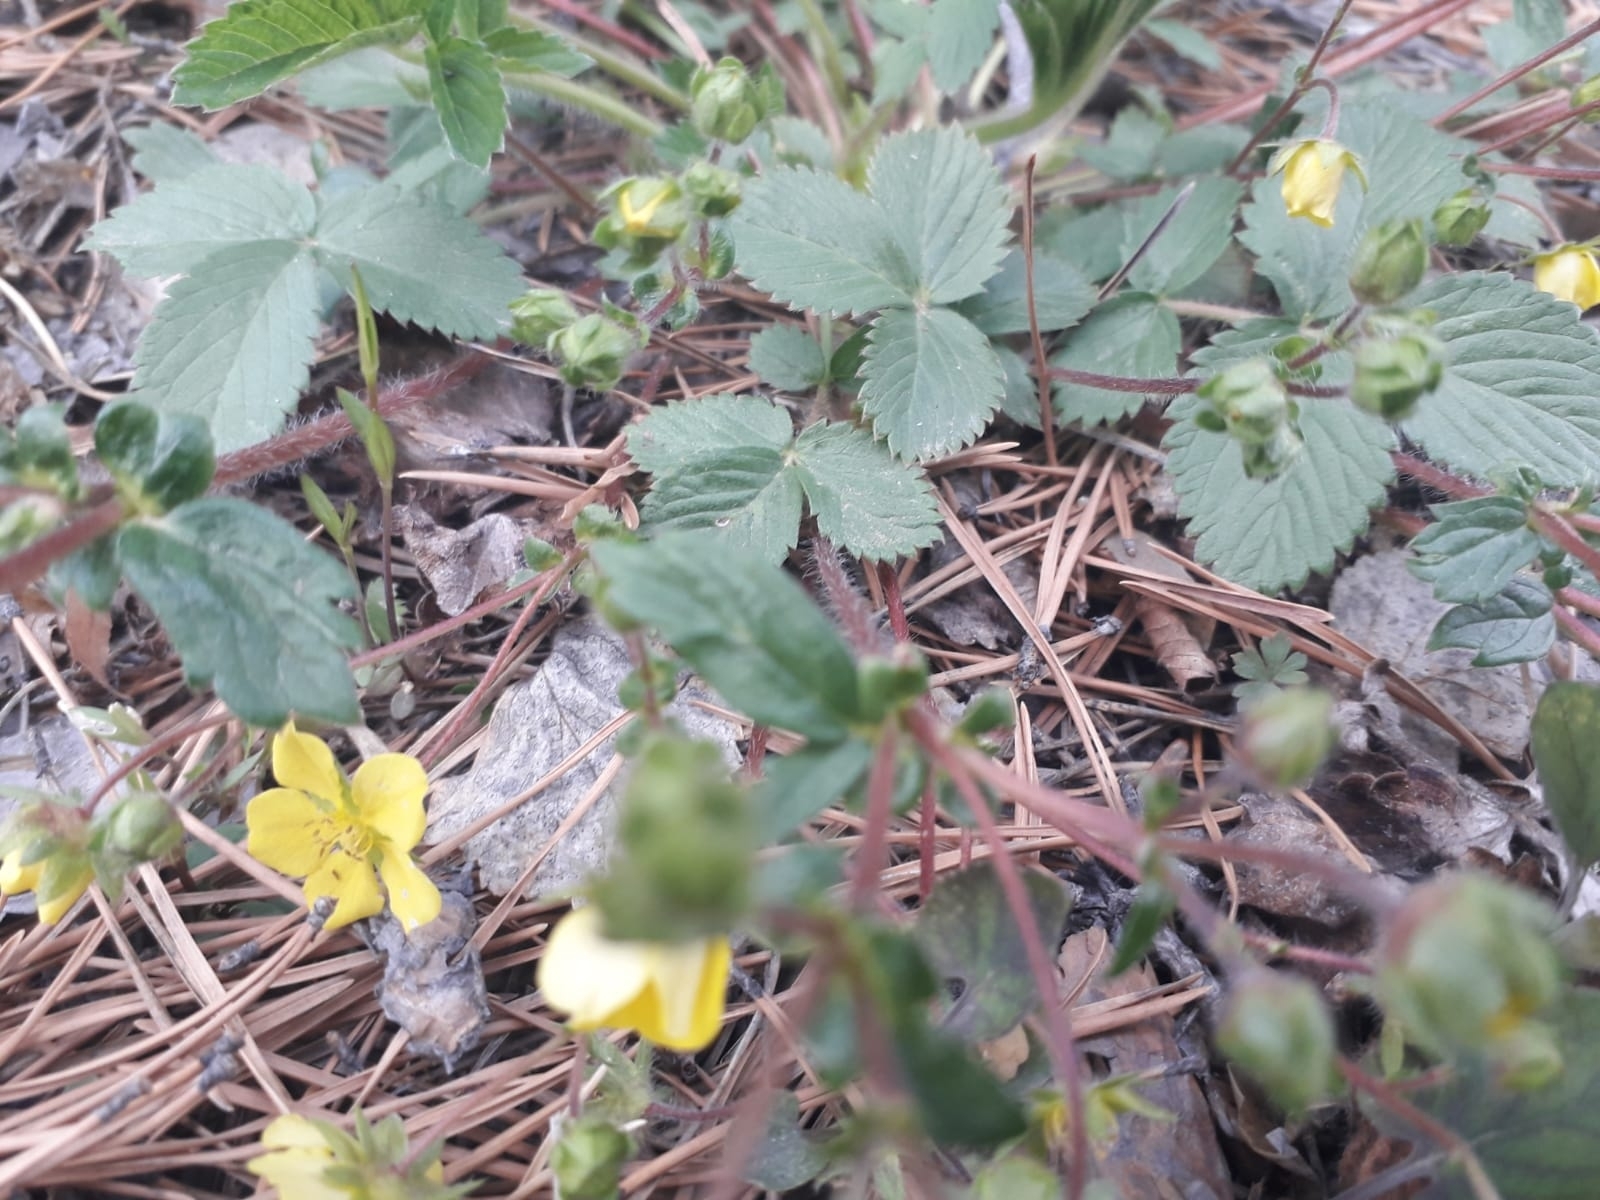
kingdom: Plantae
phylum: Tracheophyta
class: Magnoliopsida
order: Rosales
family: Rosaceae
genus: Potentilla
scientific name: Potentilla fragarioides
